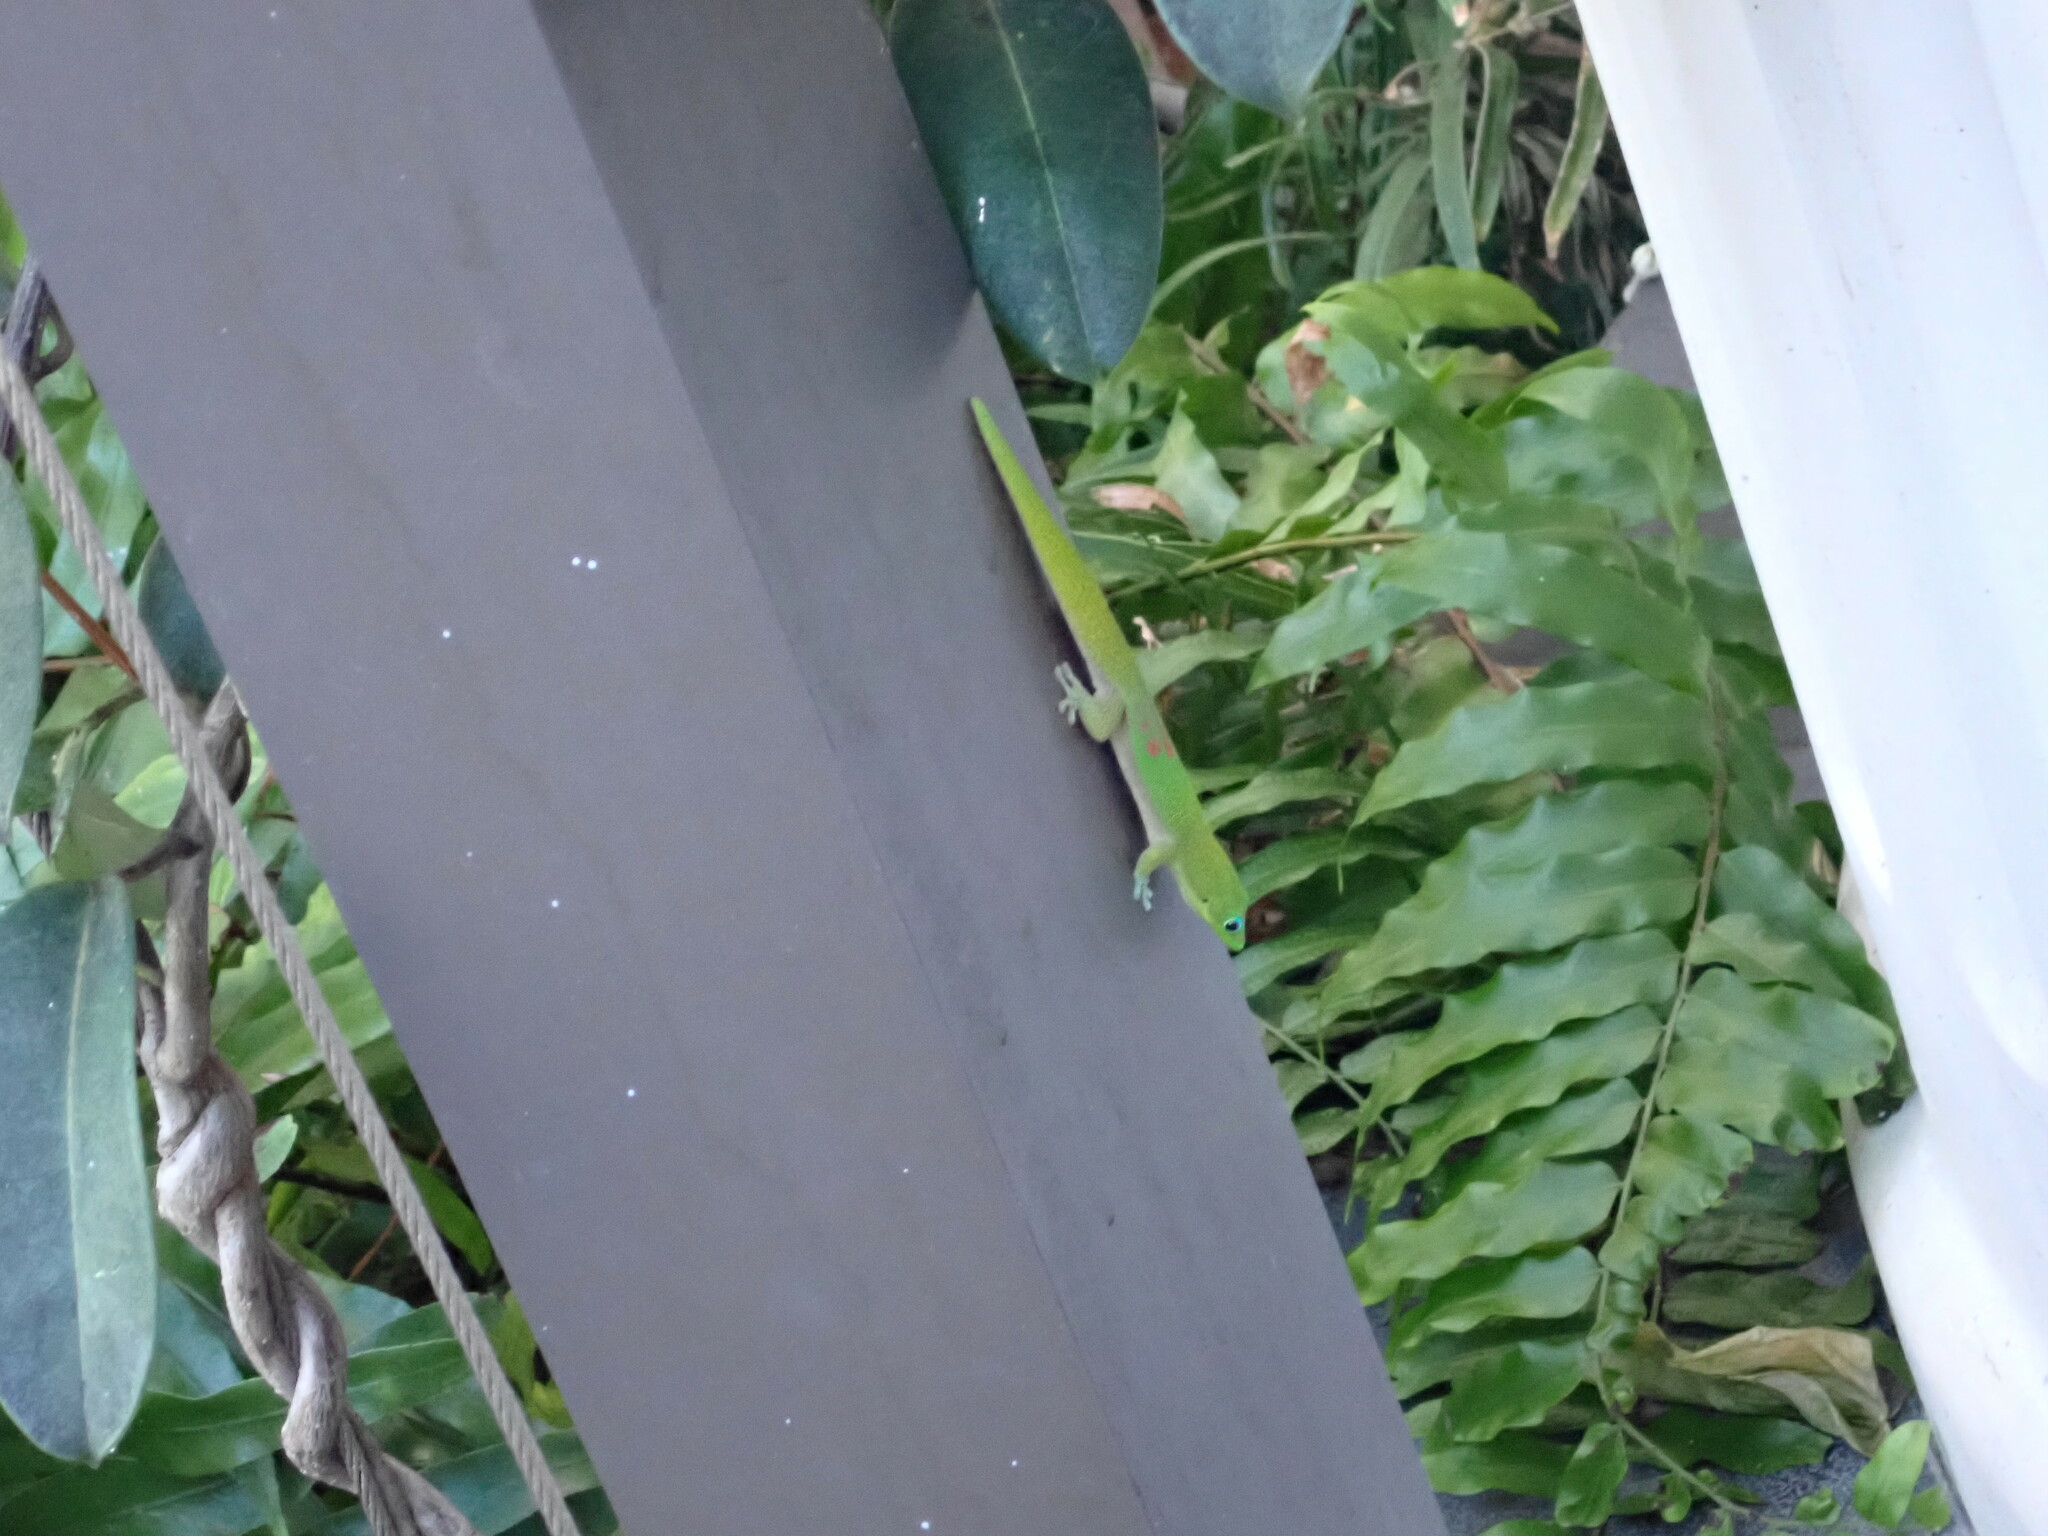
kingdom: Animalia
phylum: Chordata
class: Squamata
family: Gekkonidae
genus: Phelsuma
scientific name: Phelsuma laticauda
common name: Gold dust day gecko
